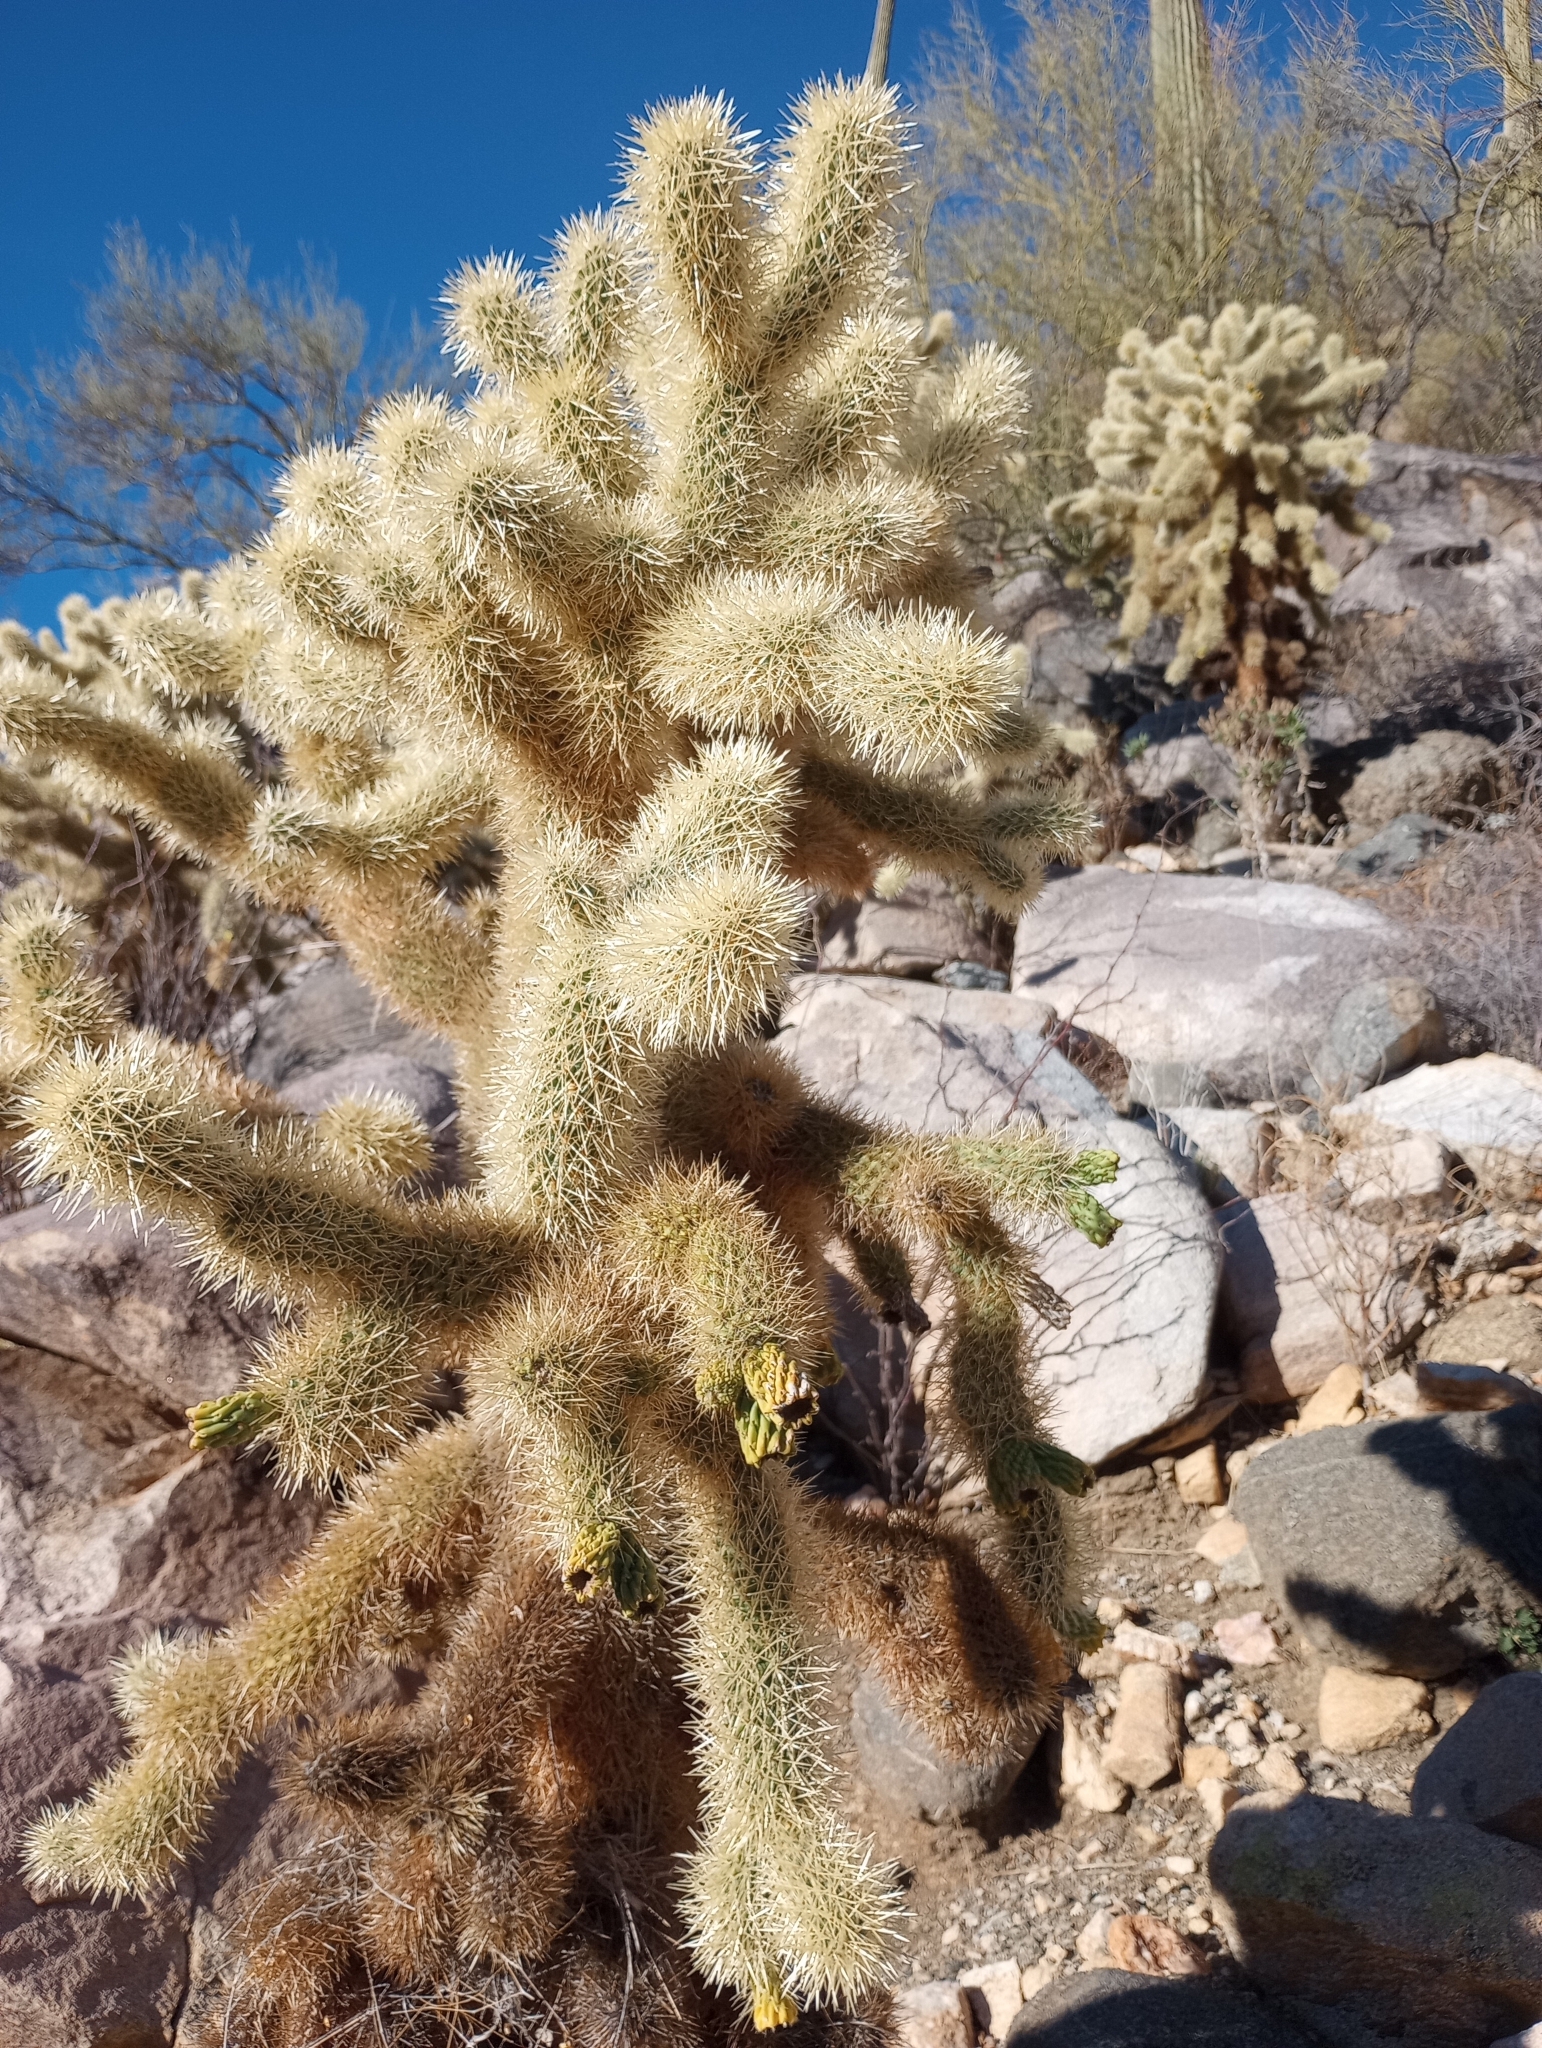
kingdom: Plantae
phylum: Tracheophyta
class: Magnoliopsida
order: Caryophyllales
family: Cactaceae
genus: Cylindropuntia
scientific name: Cylindropuntia fosbergii
